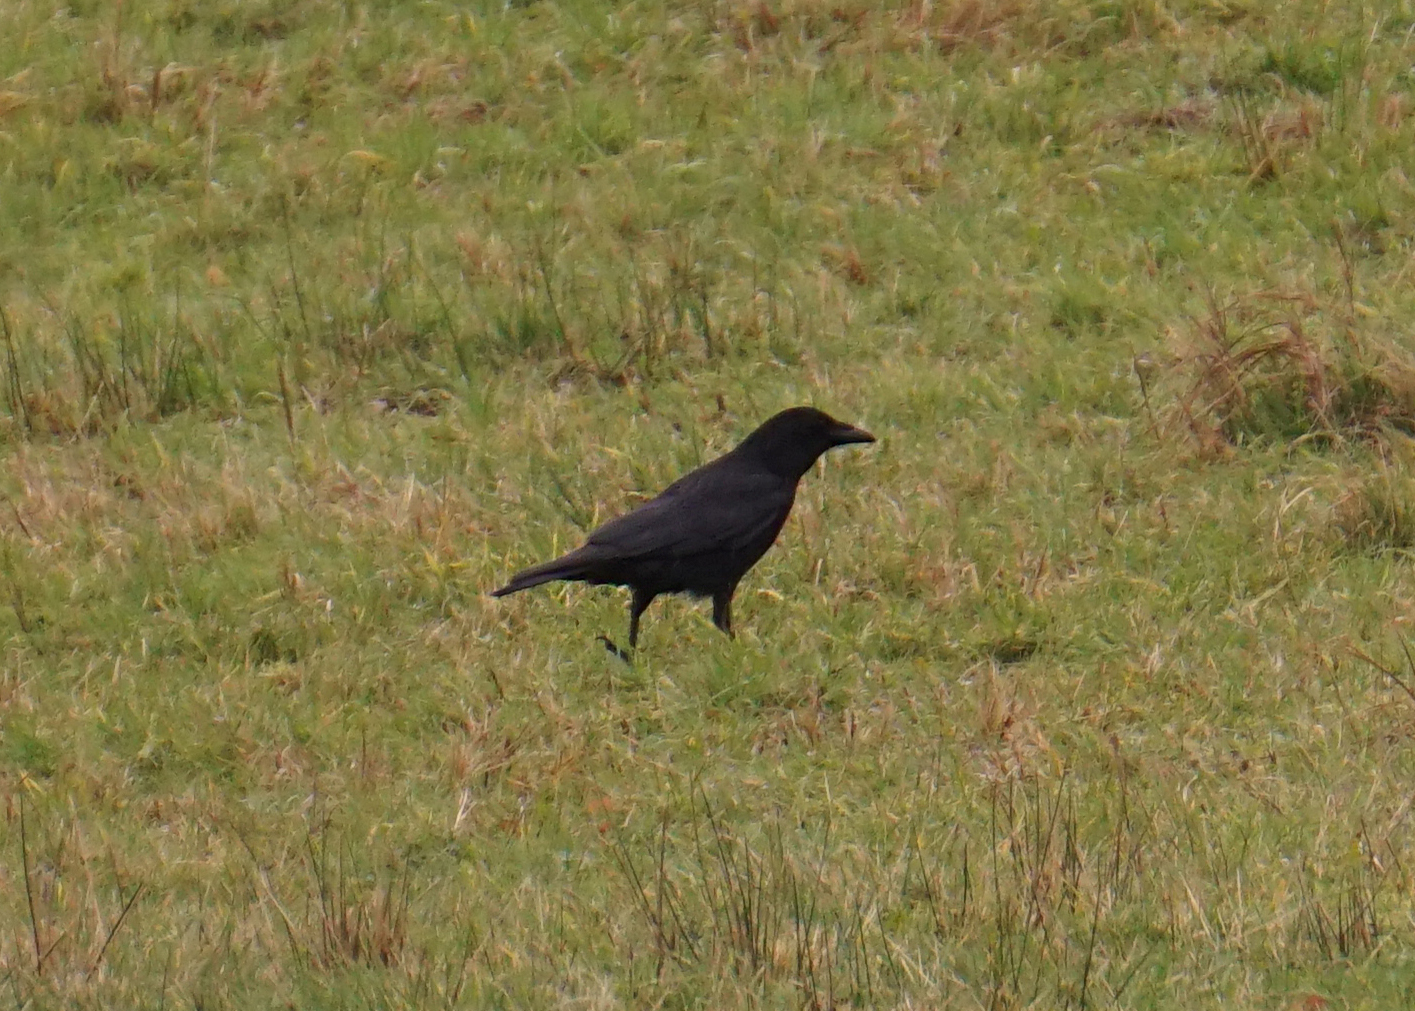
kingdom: Animalia
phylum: Chordata
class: Aves
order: Passeriformes
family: Corvidae
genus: Corvus
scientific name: Corvus corone
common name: Carrion crow
